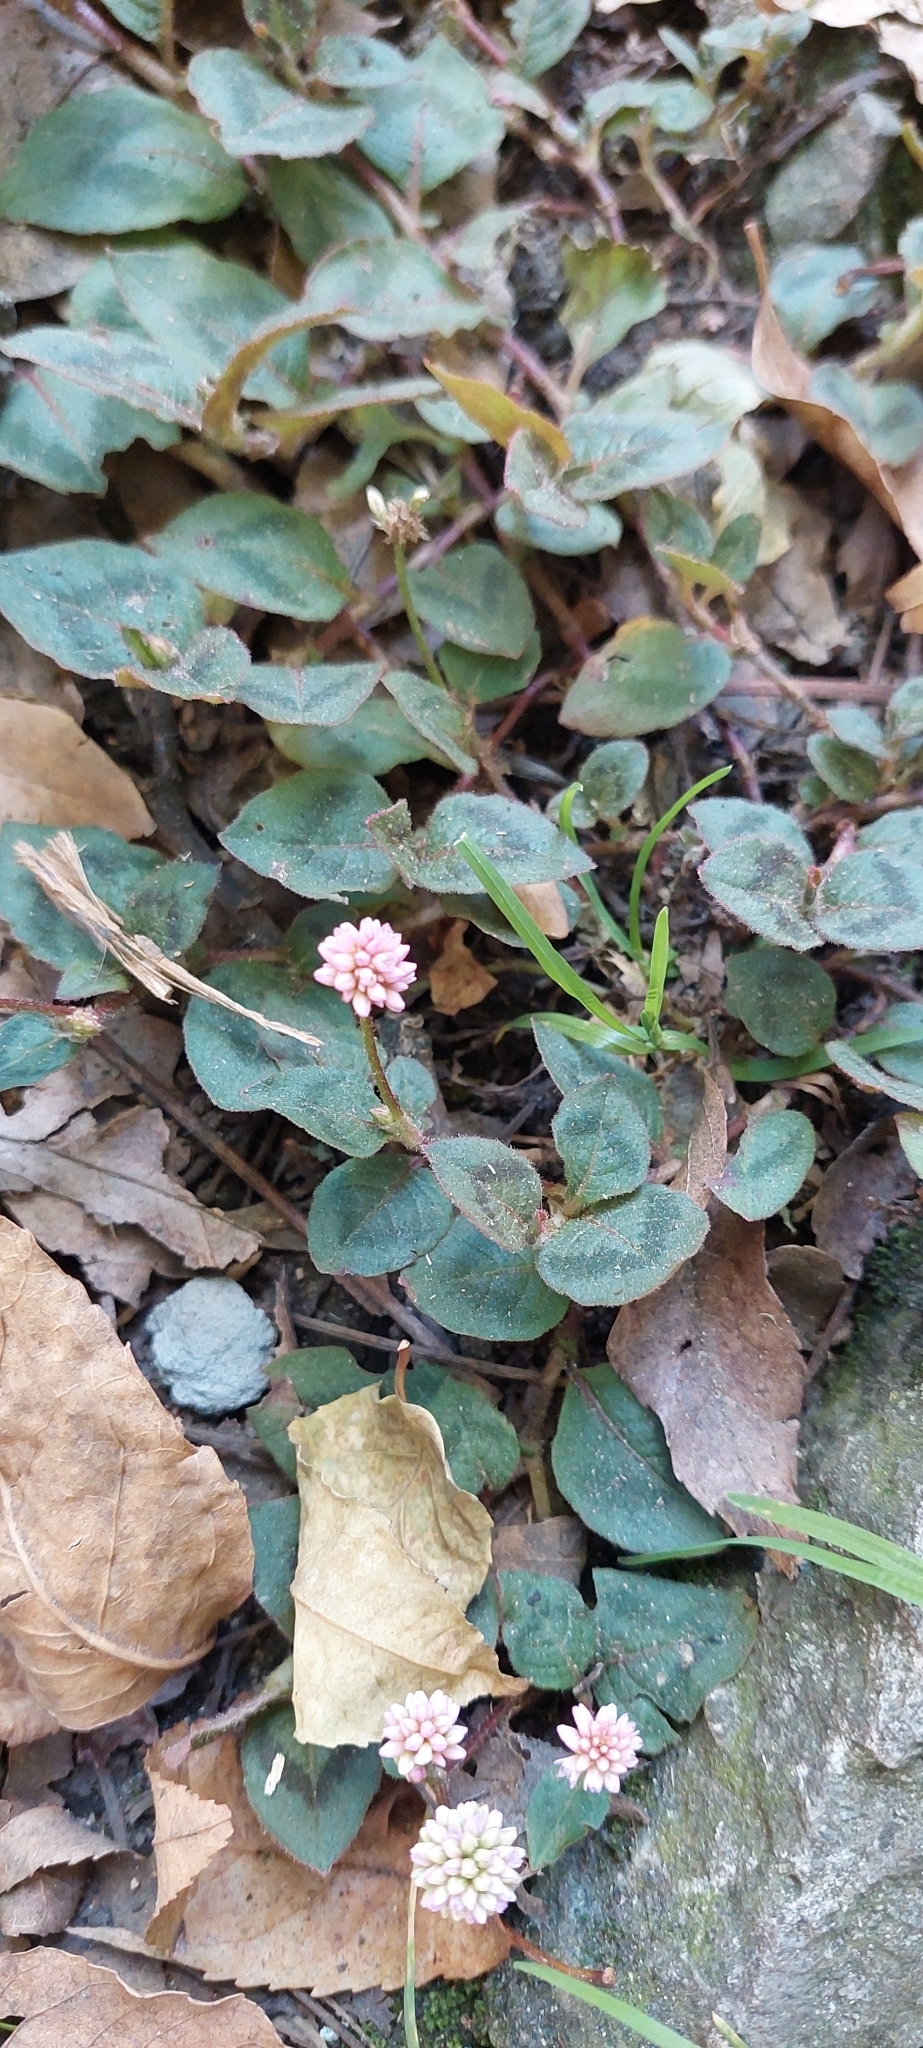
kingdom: Plantae
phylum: Tracheophyta
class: Magnoliopsida
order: Caryophyllales
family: Polygonaceae
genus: Persicaria
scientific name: Persicaria capitata
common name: Pinkhead smartweed
